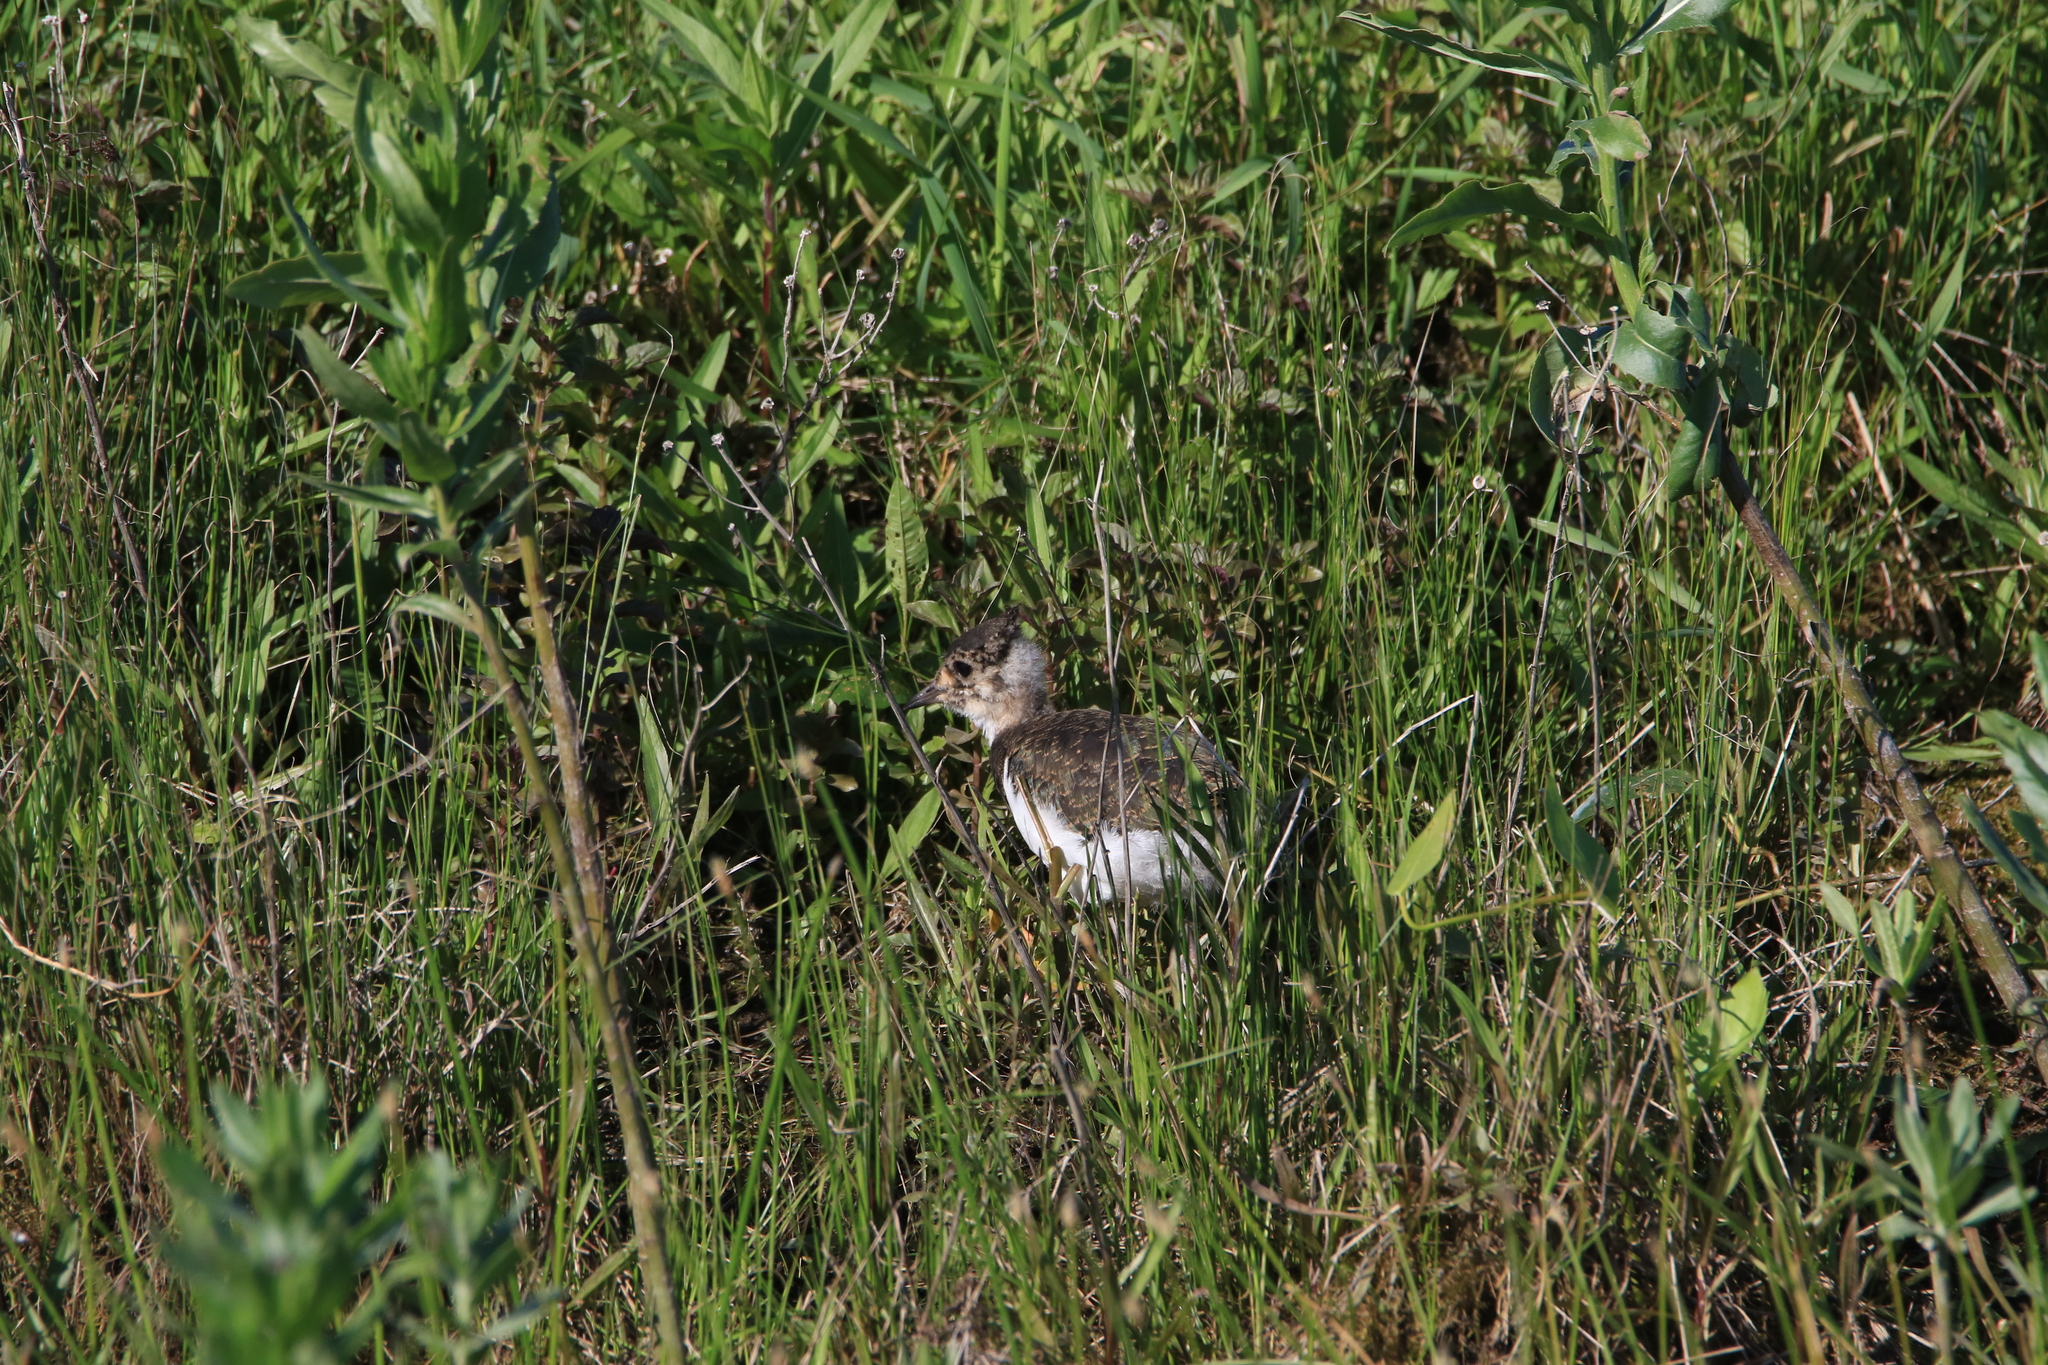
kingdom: Animalia
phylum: Chordata
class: Aves
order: Charadriiformes
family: Charadriidae
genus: Vanellus
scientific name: Vanellus vanellus
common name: Northern lapwing
